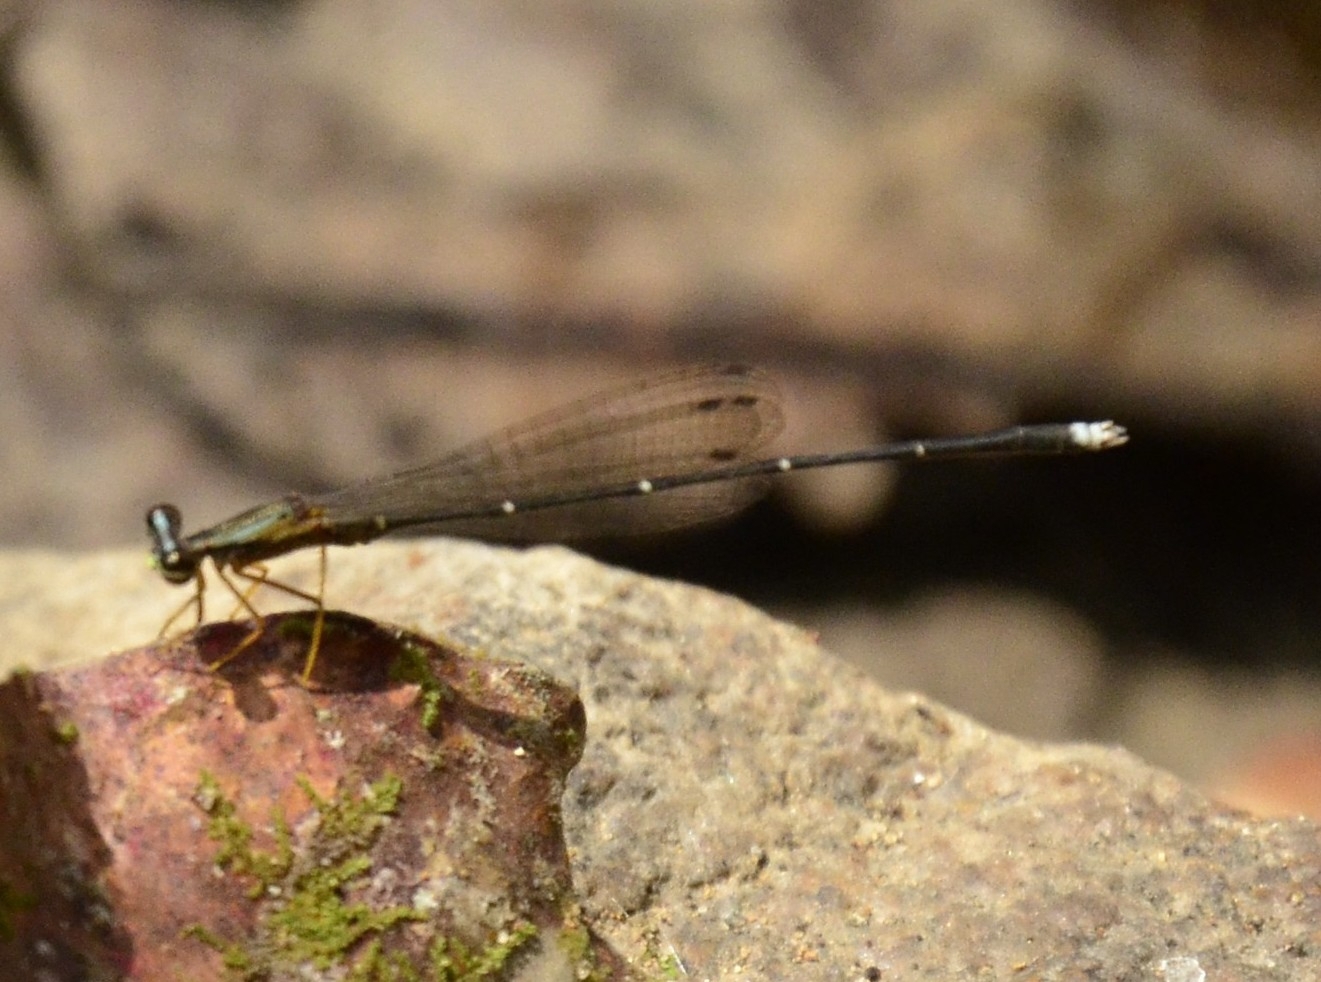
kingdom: Animalia
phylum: Arthropoda
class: Insecta
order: Odonata
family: Platycnemididae
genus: Copera
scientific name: Copera vittata
